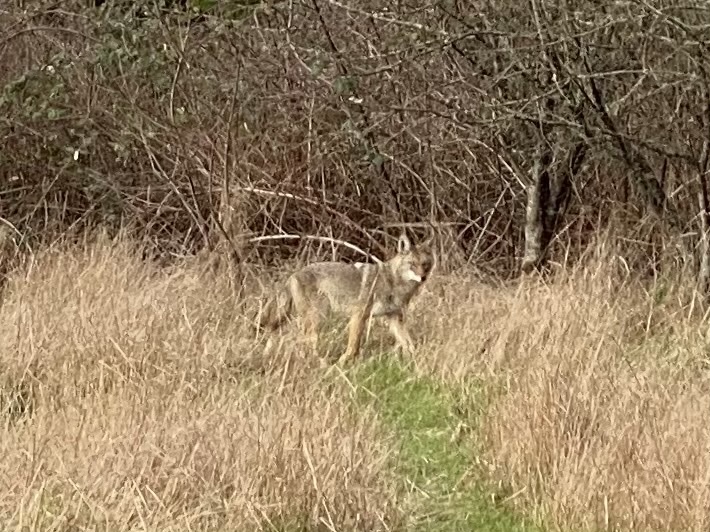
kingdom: Animalia
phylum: Chordata
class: Mammalia
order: Carnivora
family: Canidae
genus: Canis
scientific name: Canis latrans
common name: Coyote
